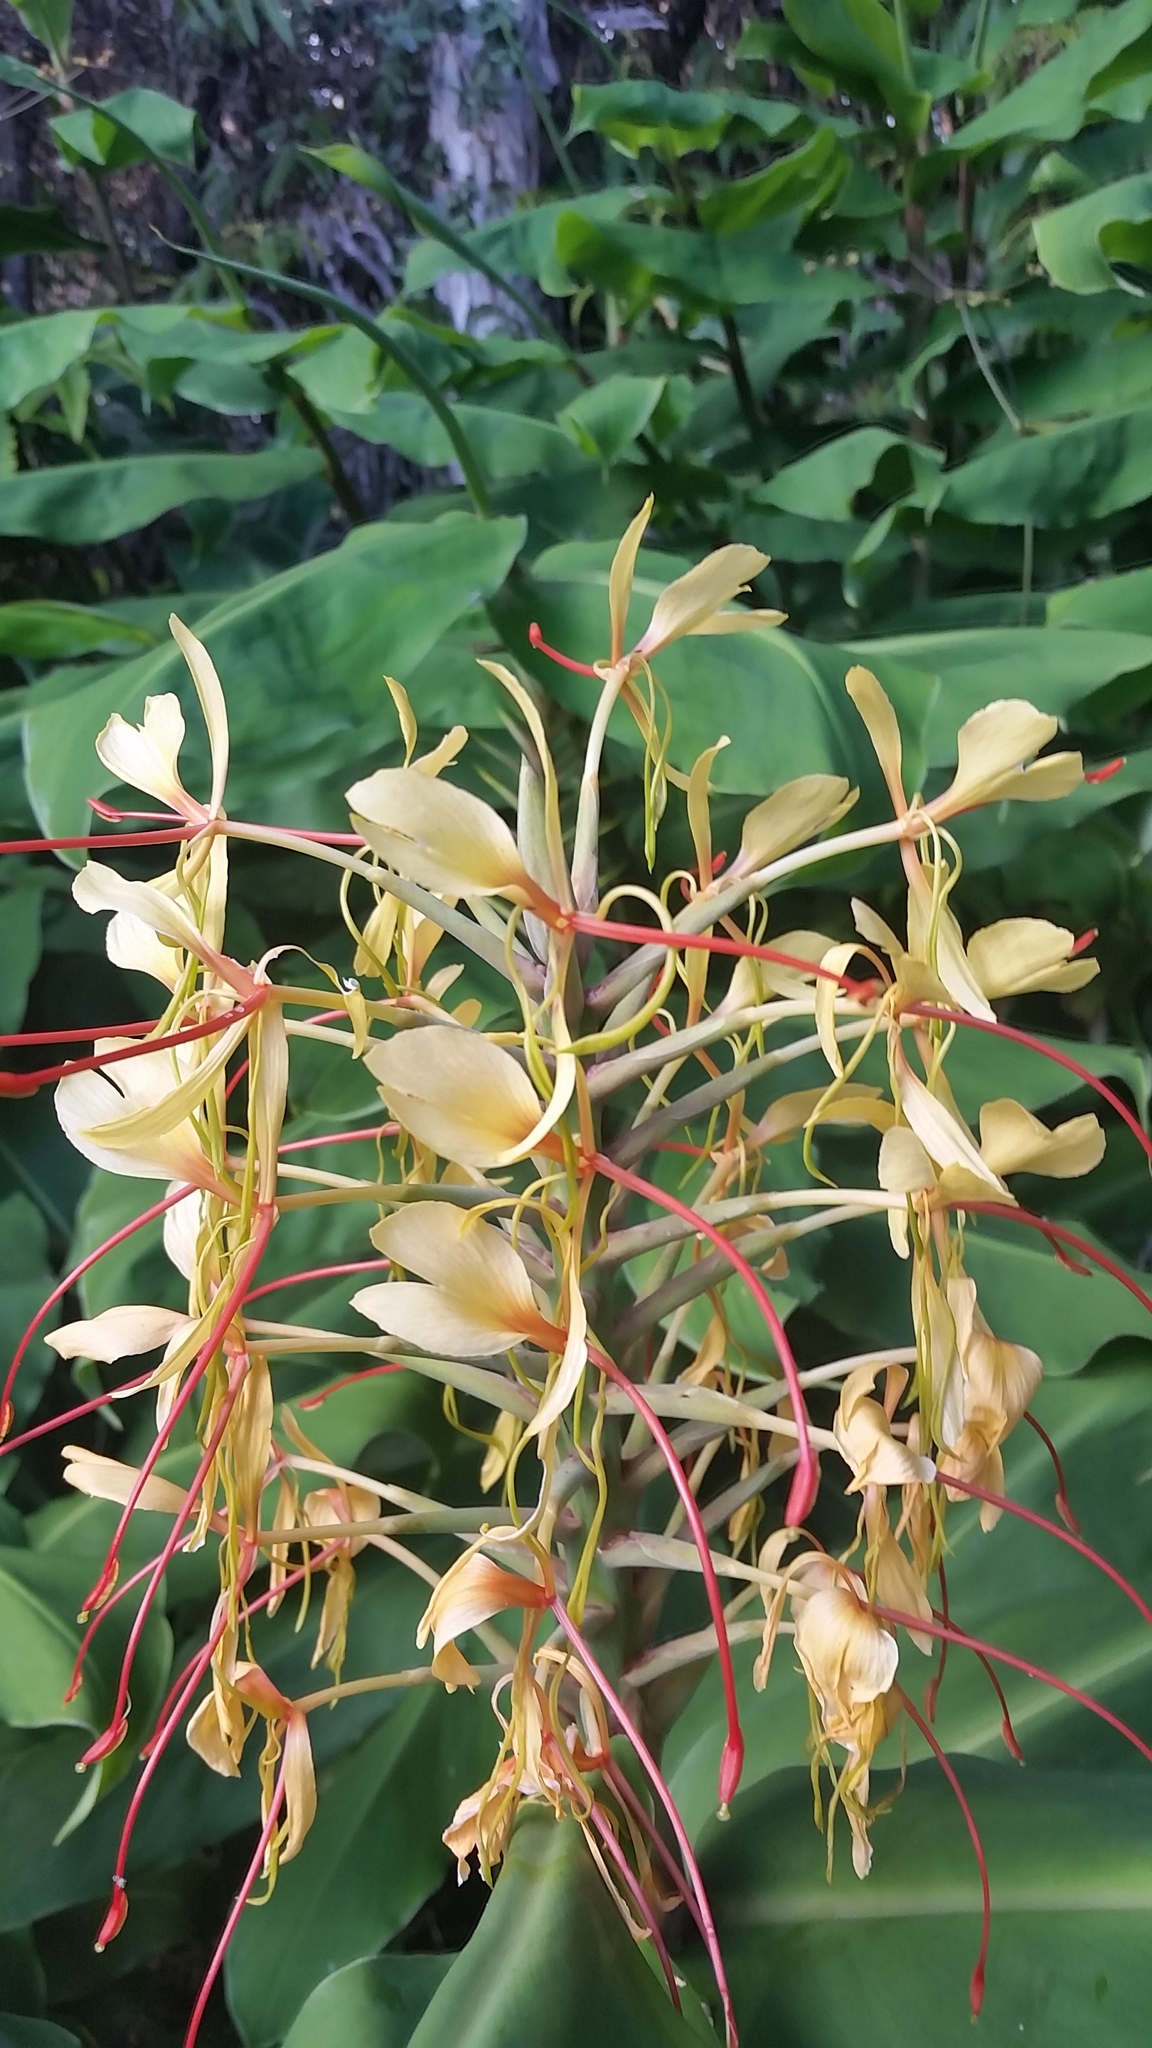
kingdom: Plantae
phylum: Tracheophyta
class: Liliopsida
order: Zingiberales
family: Zingiberaceae
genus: Hedychium
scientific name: Hedychium gardnerianum
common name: Himalayan ginger
